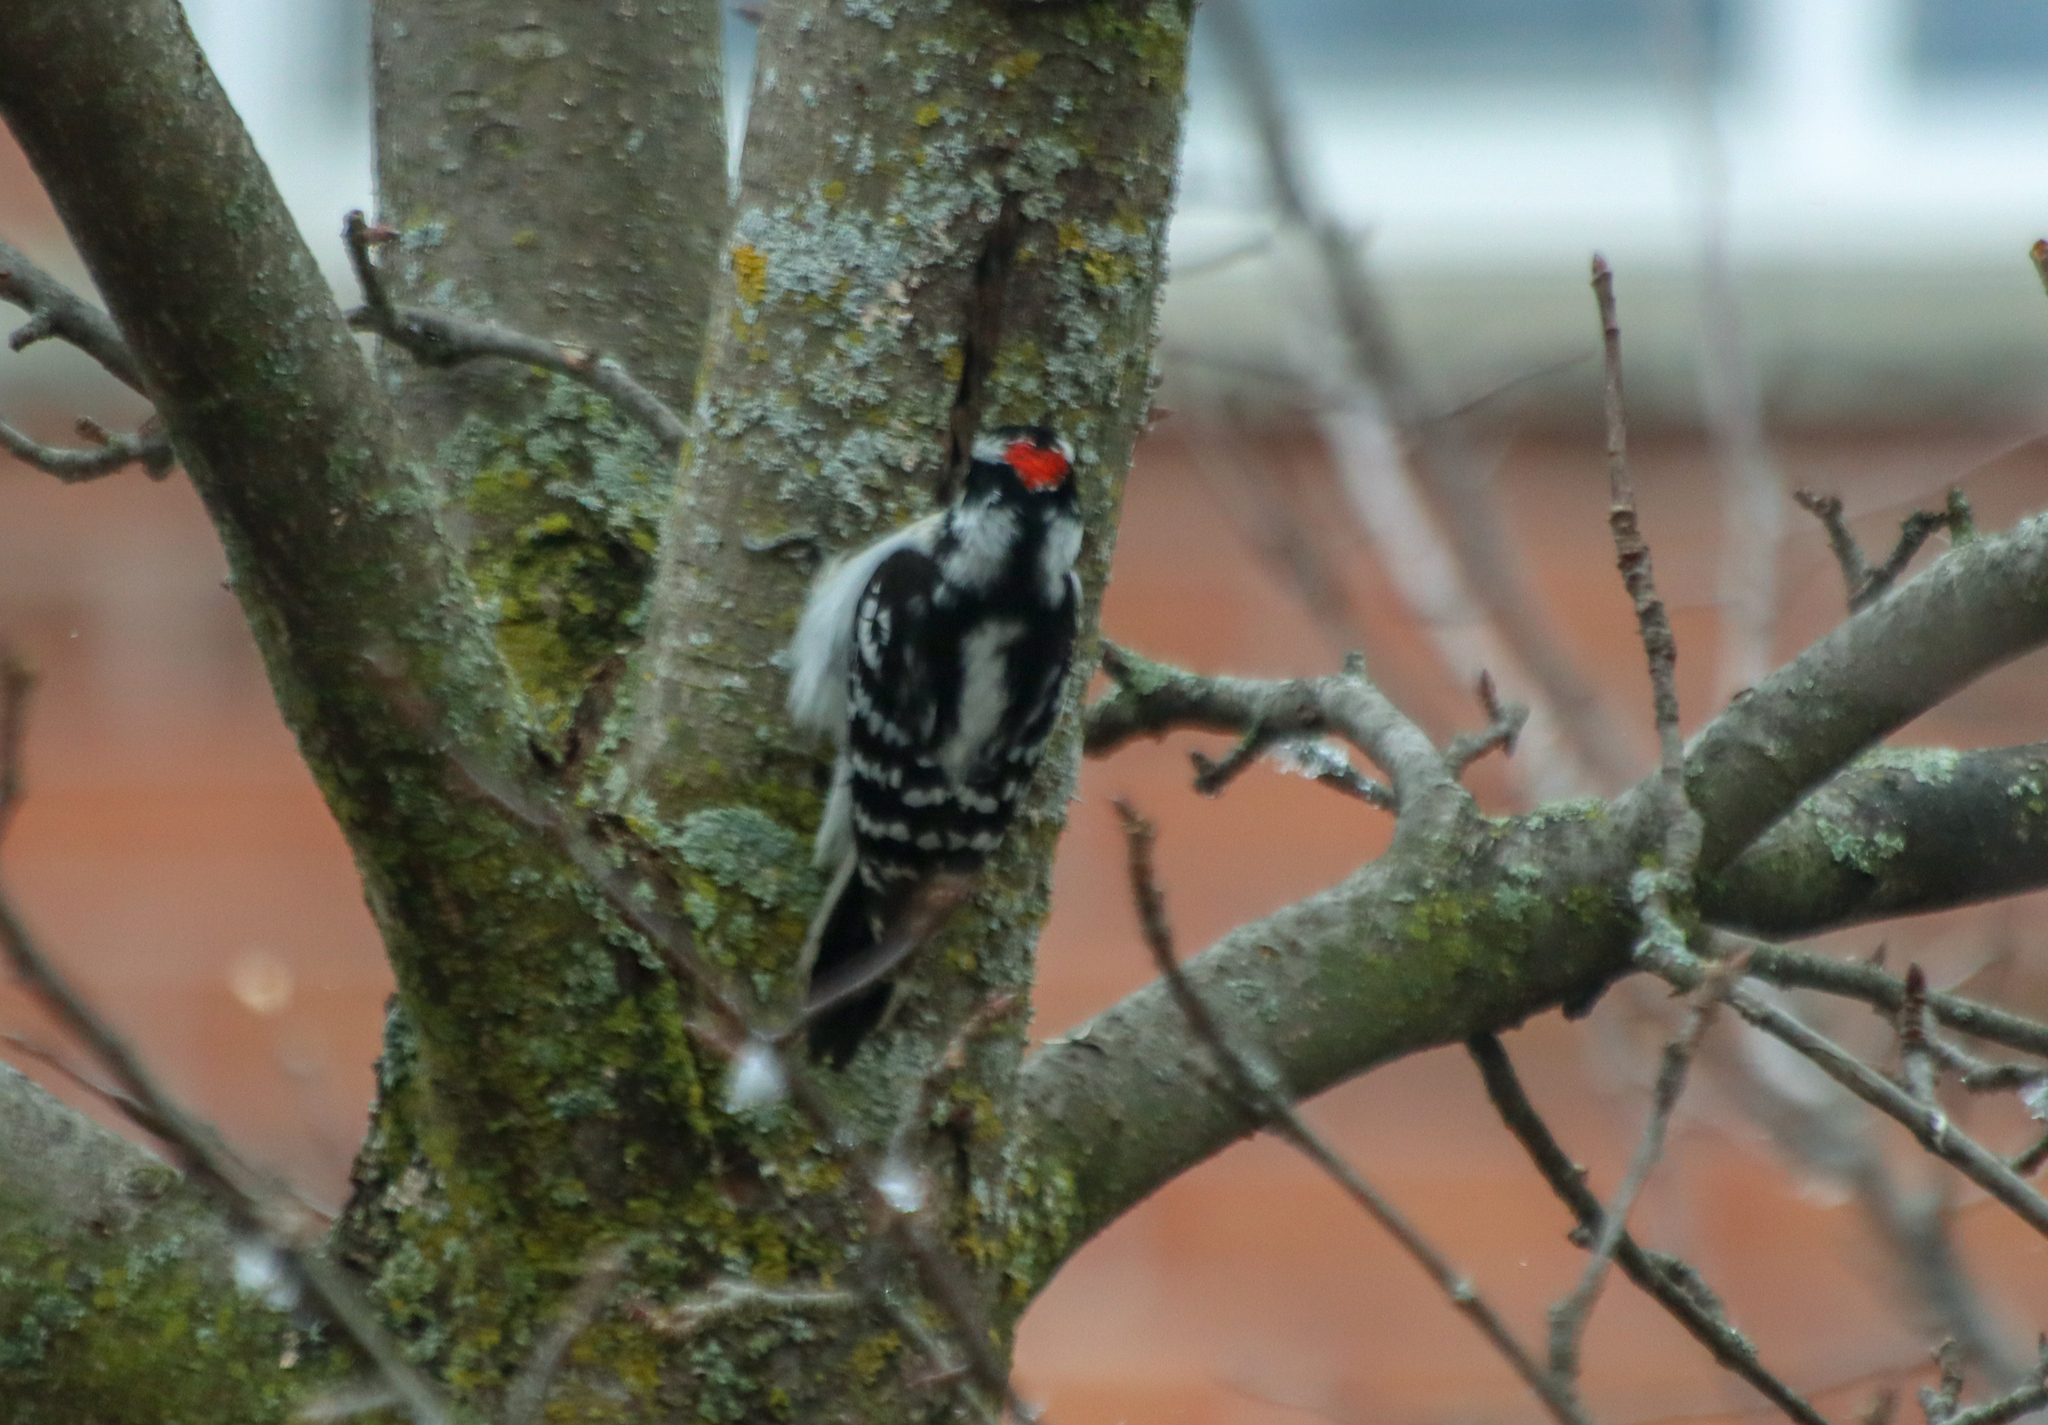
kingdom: Animalia
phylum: Chordata
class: Aves
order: Piciformes
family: Picidae
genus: Dryobates
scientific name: Dryobates pubescens
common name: Downy woodpecker
